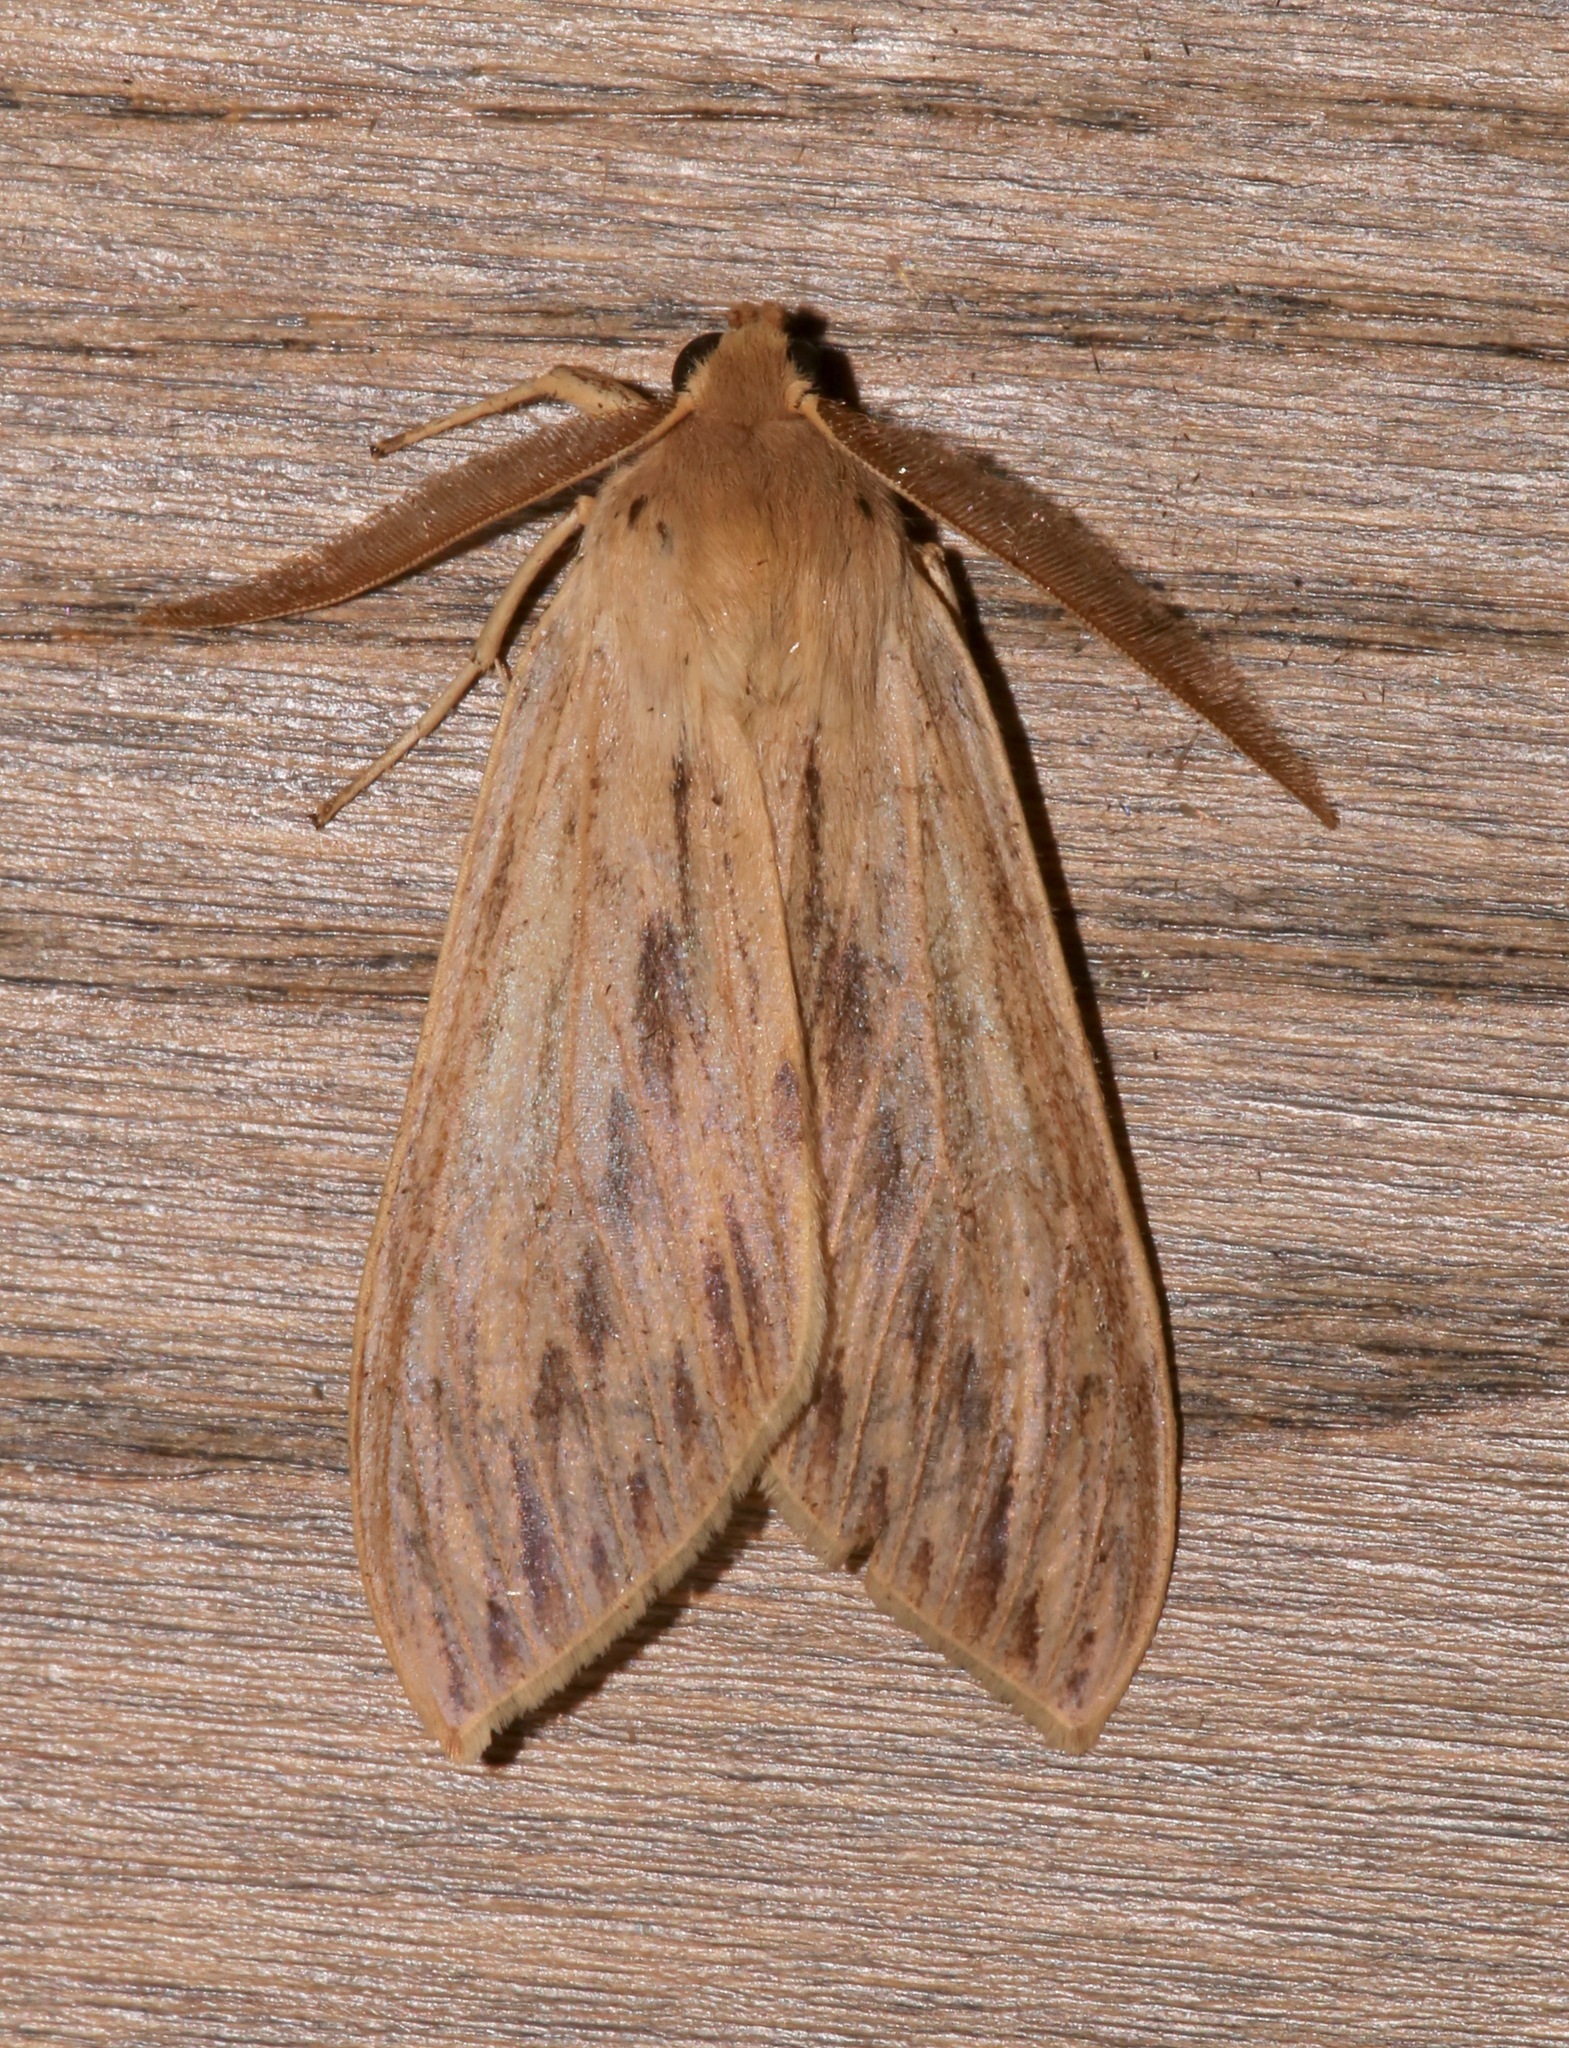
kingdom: Animalia
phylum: Arthropoda
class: Insecta
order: Lepidoptera
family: Erebidae
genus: Leucanopsis
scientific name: Leucanopsis lurida
